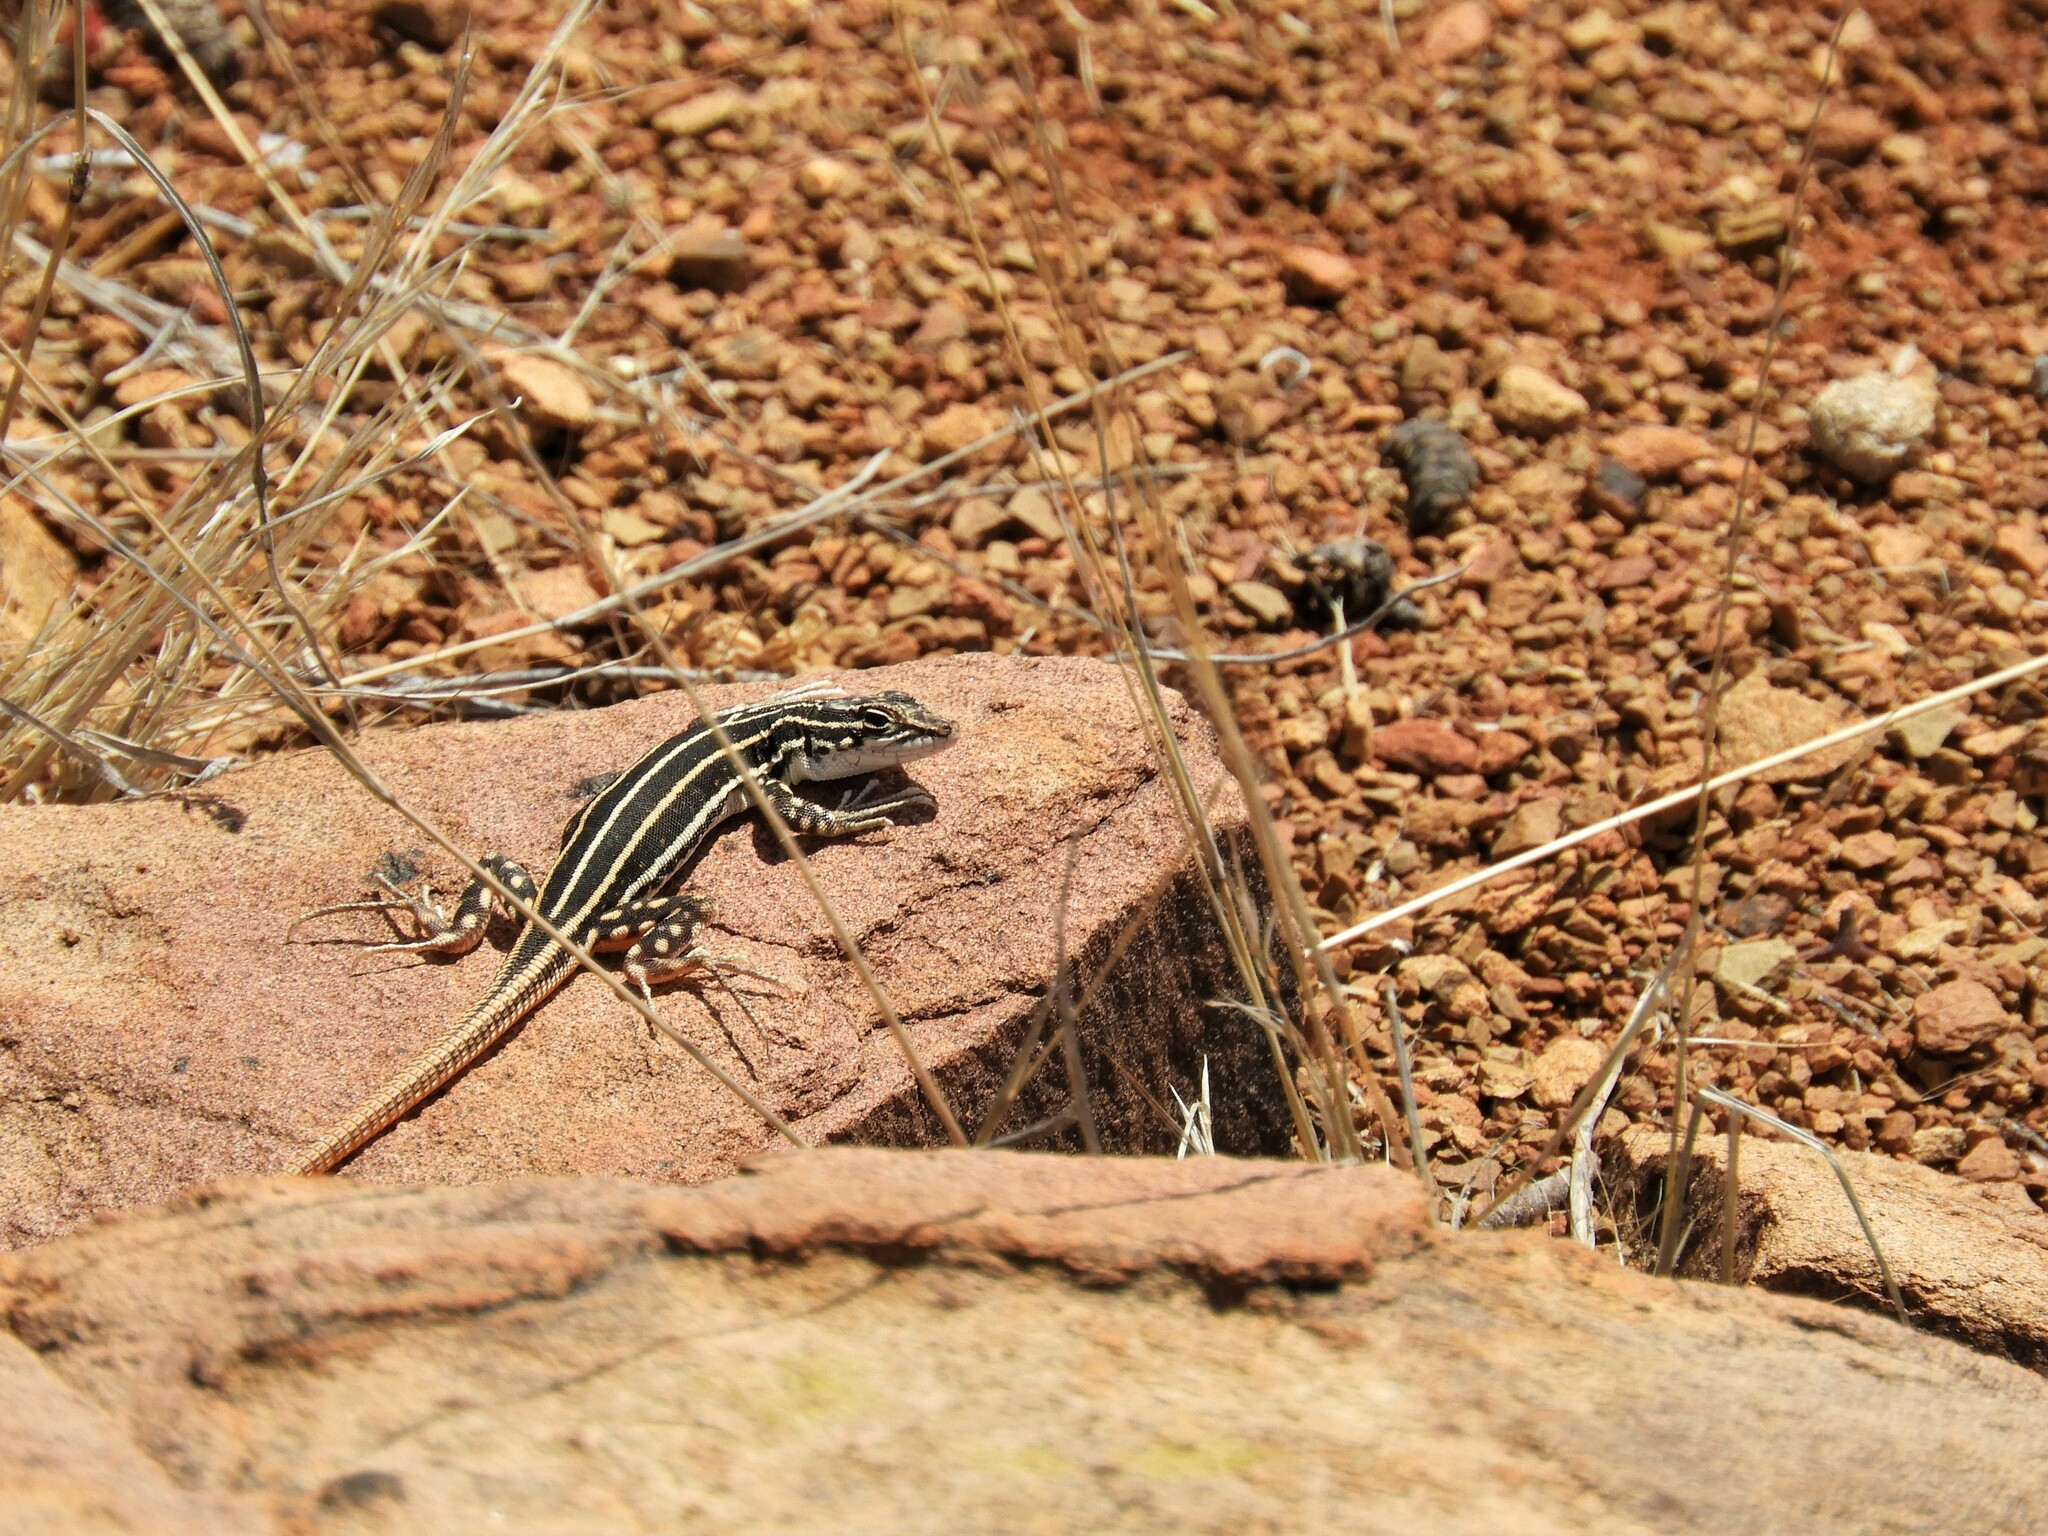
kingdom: Animalia
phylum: Chordata
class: Squamata
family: Lacertidae
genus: Pedioplanis
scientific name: Pedioplanis laticeps
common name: Karoo sand lizard
